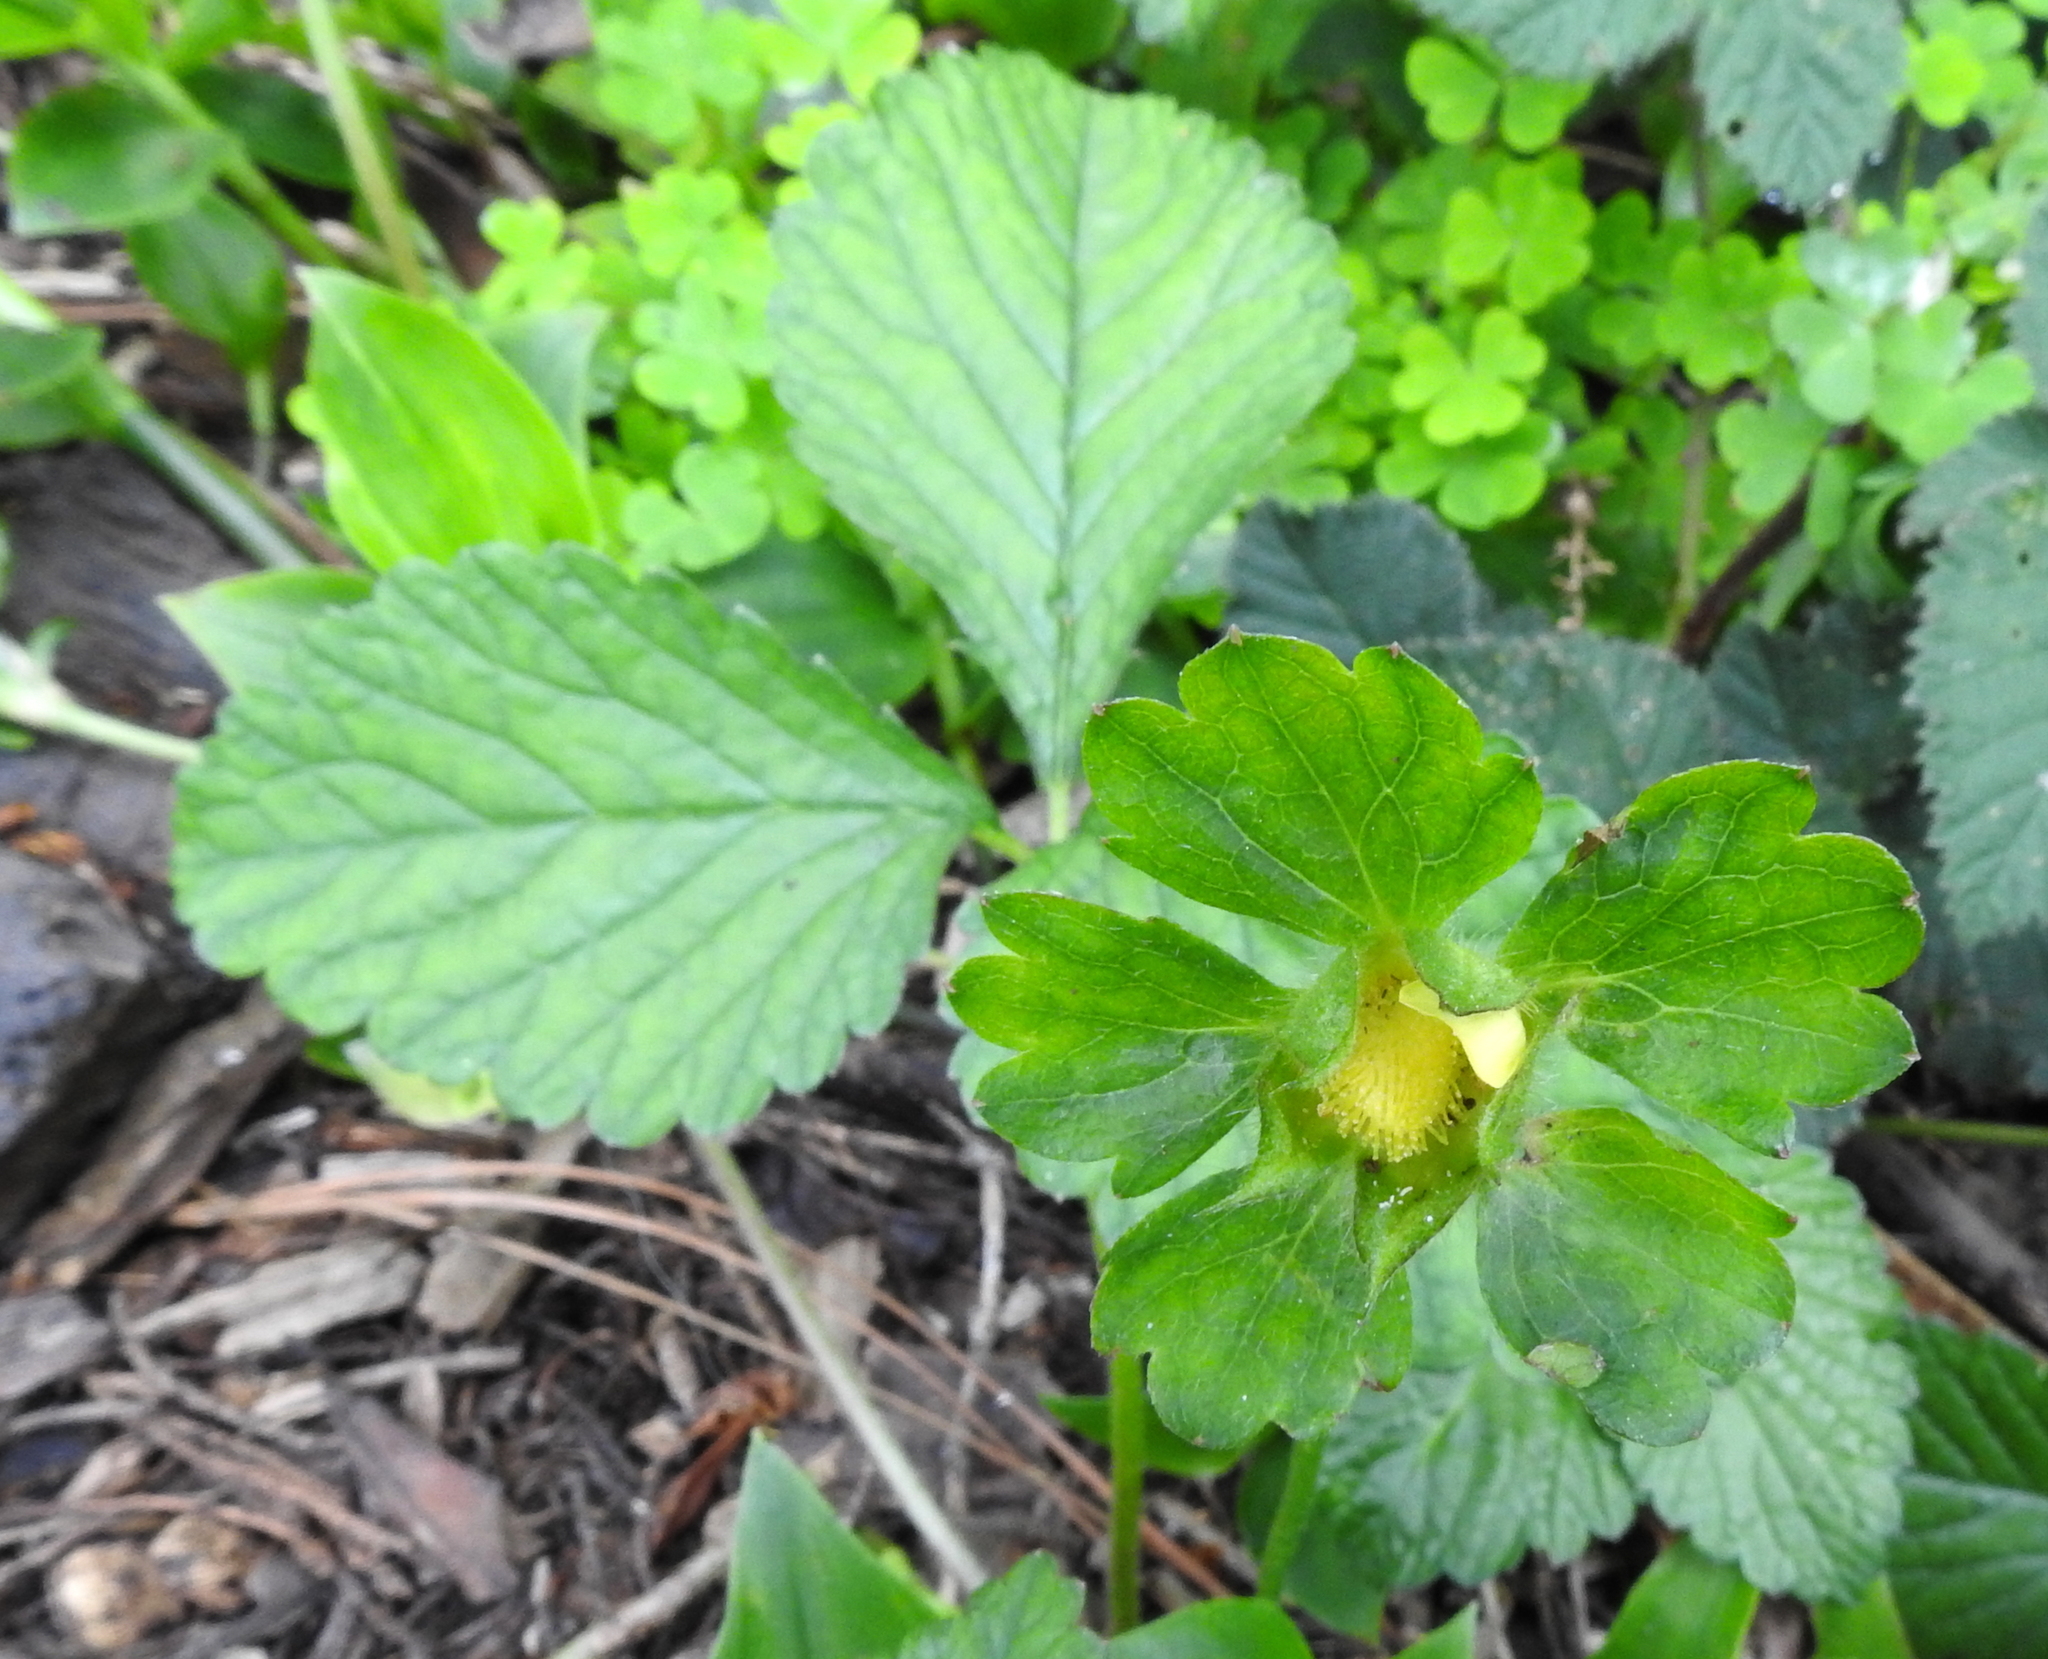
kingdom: Plantae
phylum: Tracheophyta
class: Magnoliopsida
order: Rosales
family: Rosaceae
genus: Potentilla
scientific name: Potentilla indica
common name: Yellow-flowered strawberry
